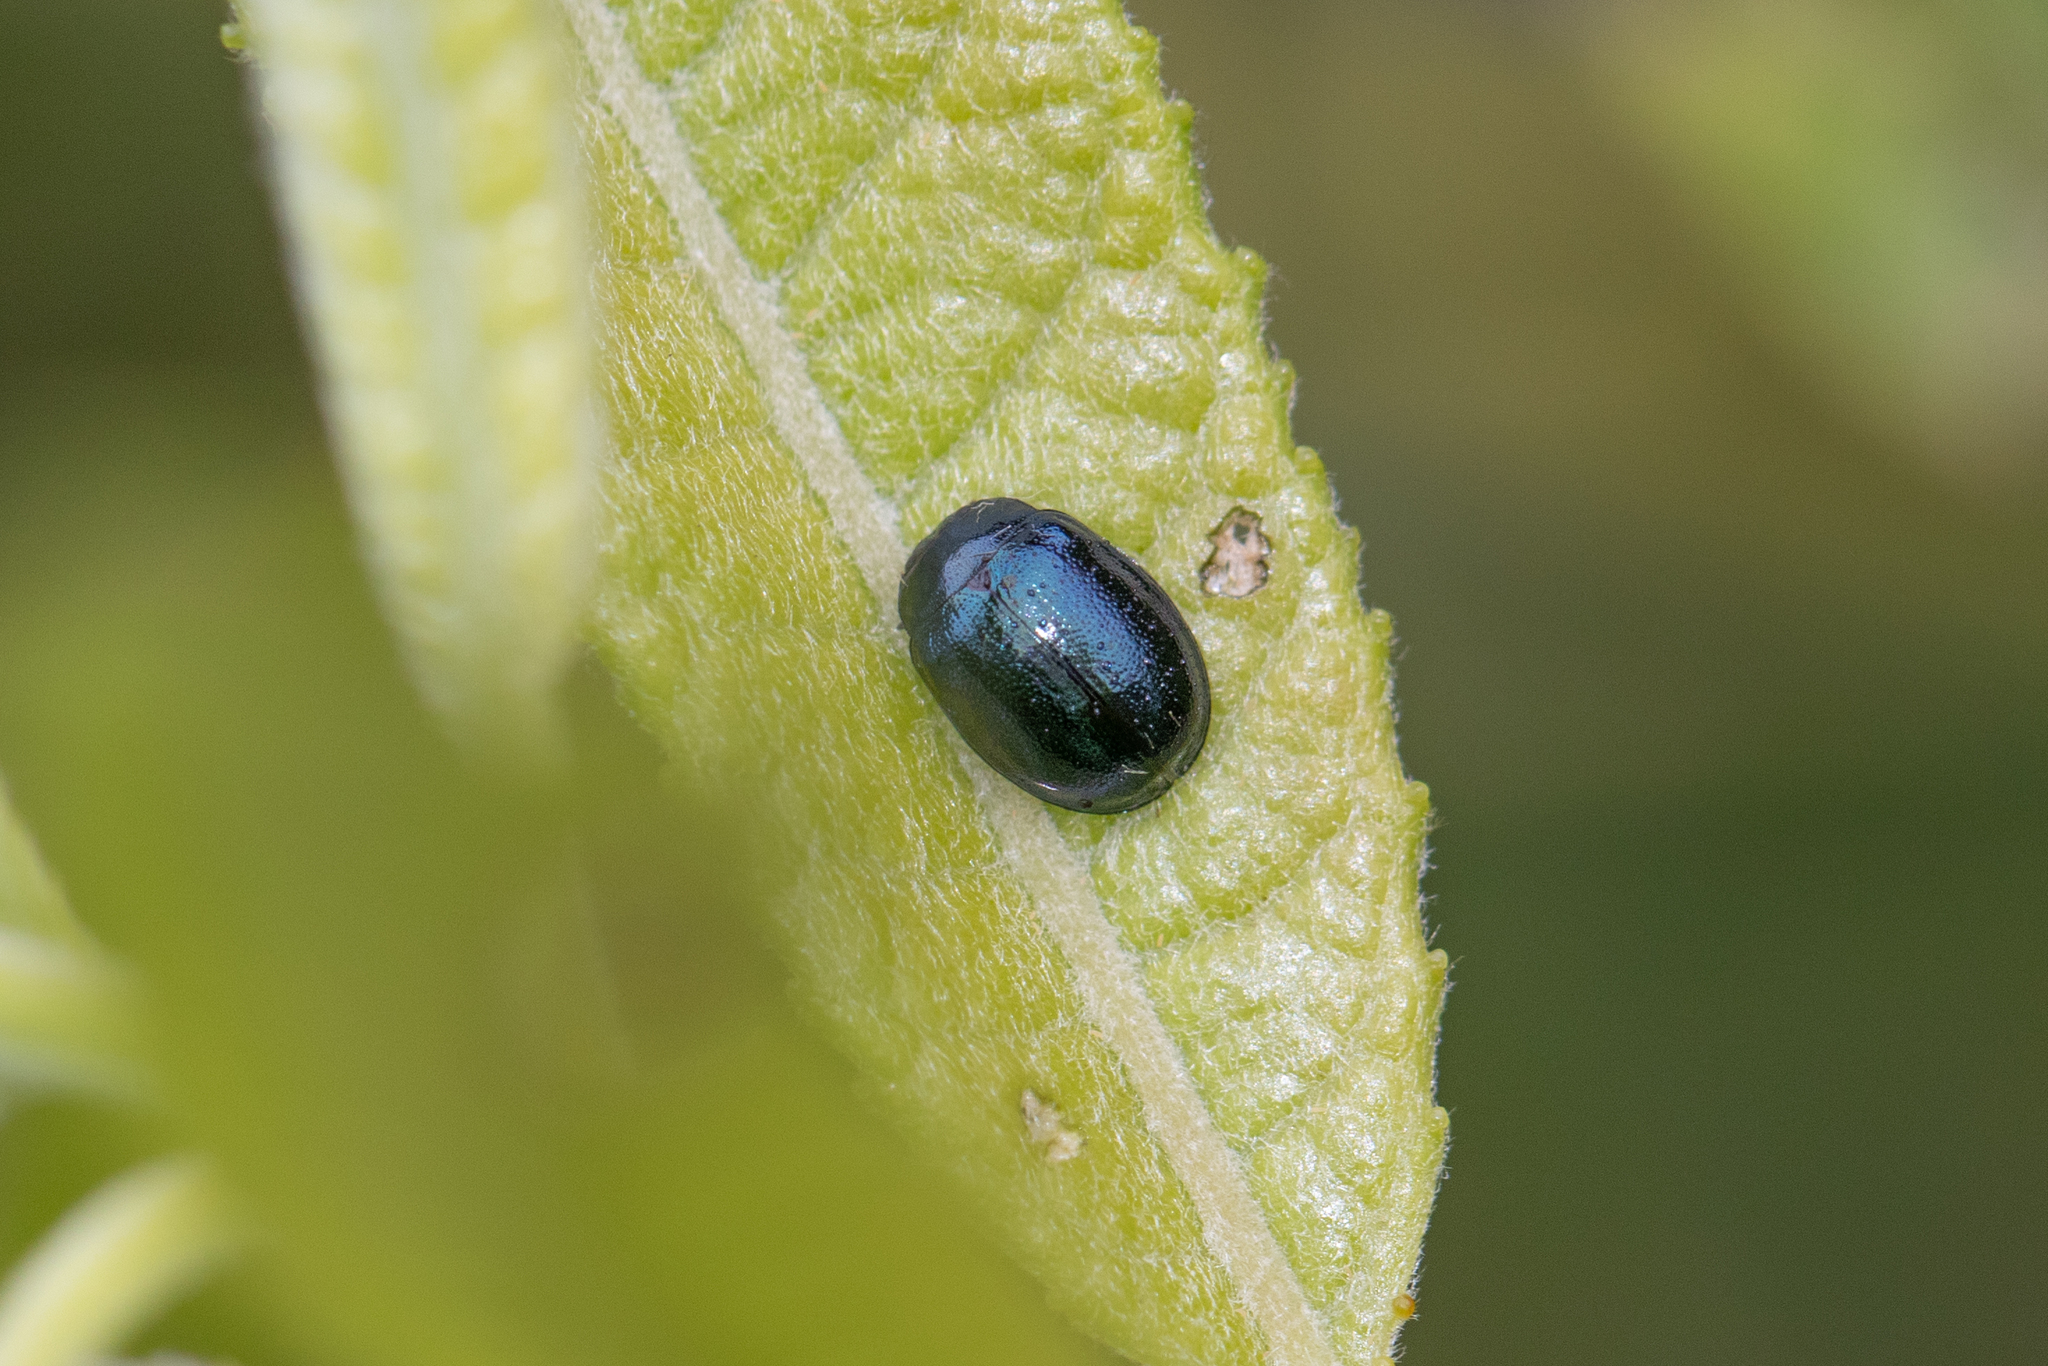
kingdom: Animalia
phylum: Arthropoda
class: Insecta
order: Coleoptera
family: Chrysomelidae
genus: Plagiodera
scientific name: Plagiodera versicolora
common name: Imported willow leaf beetle
